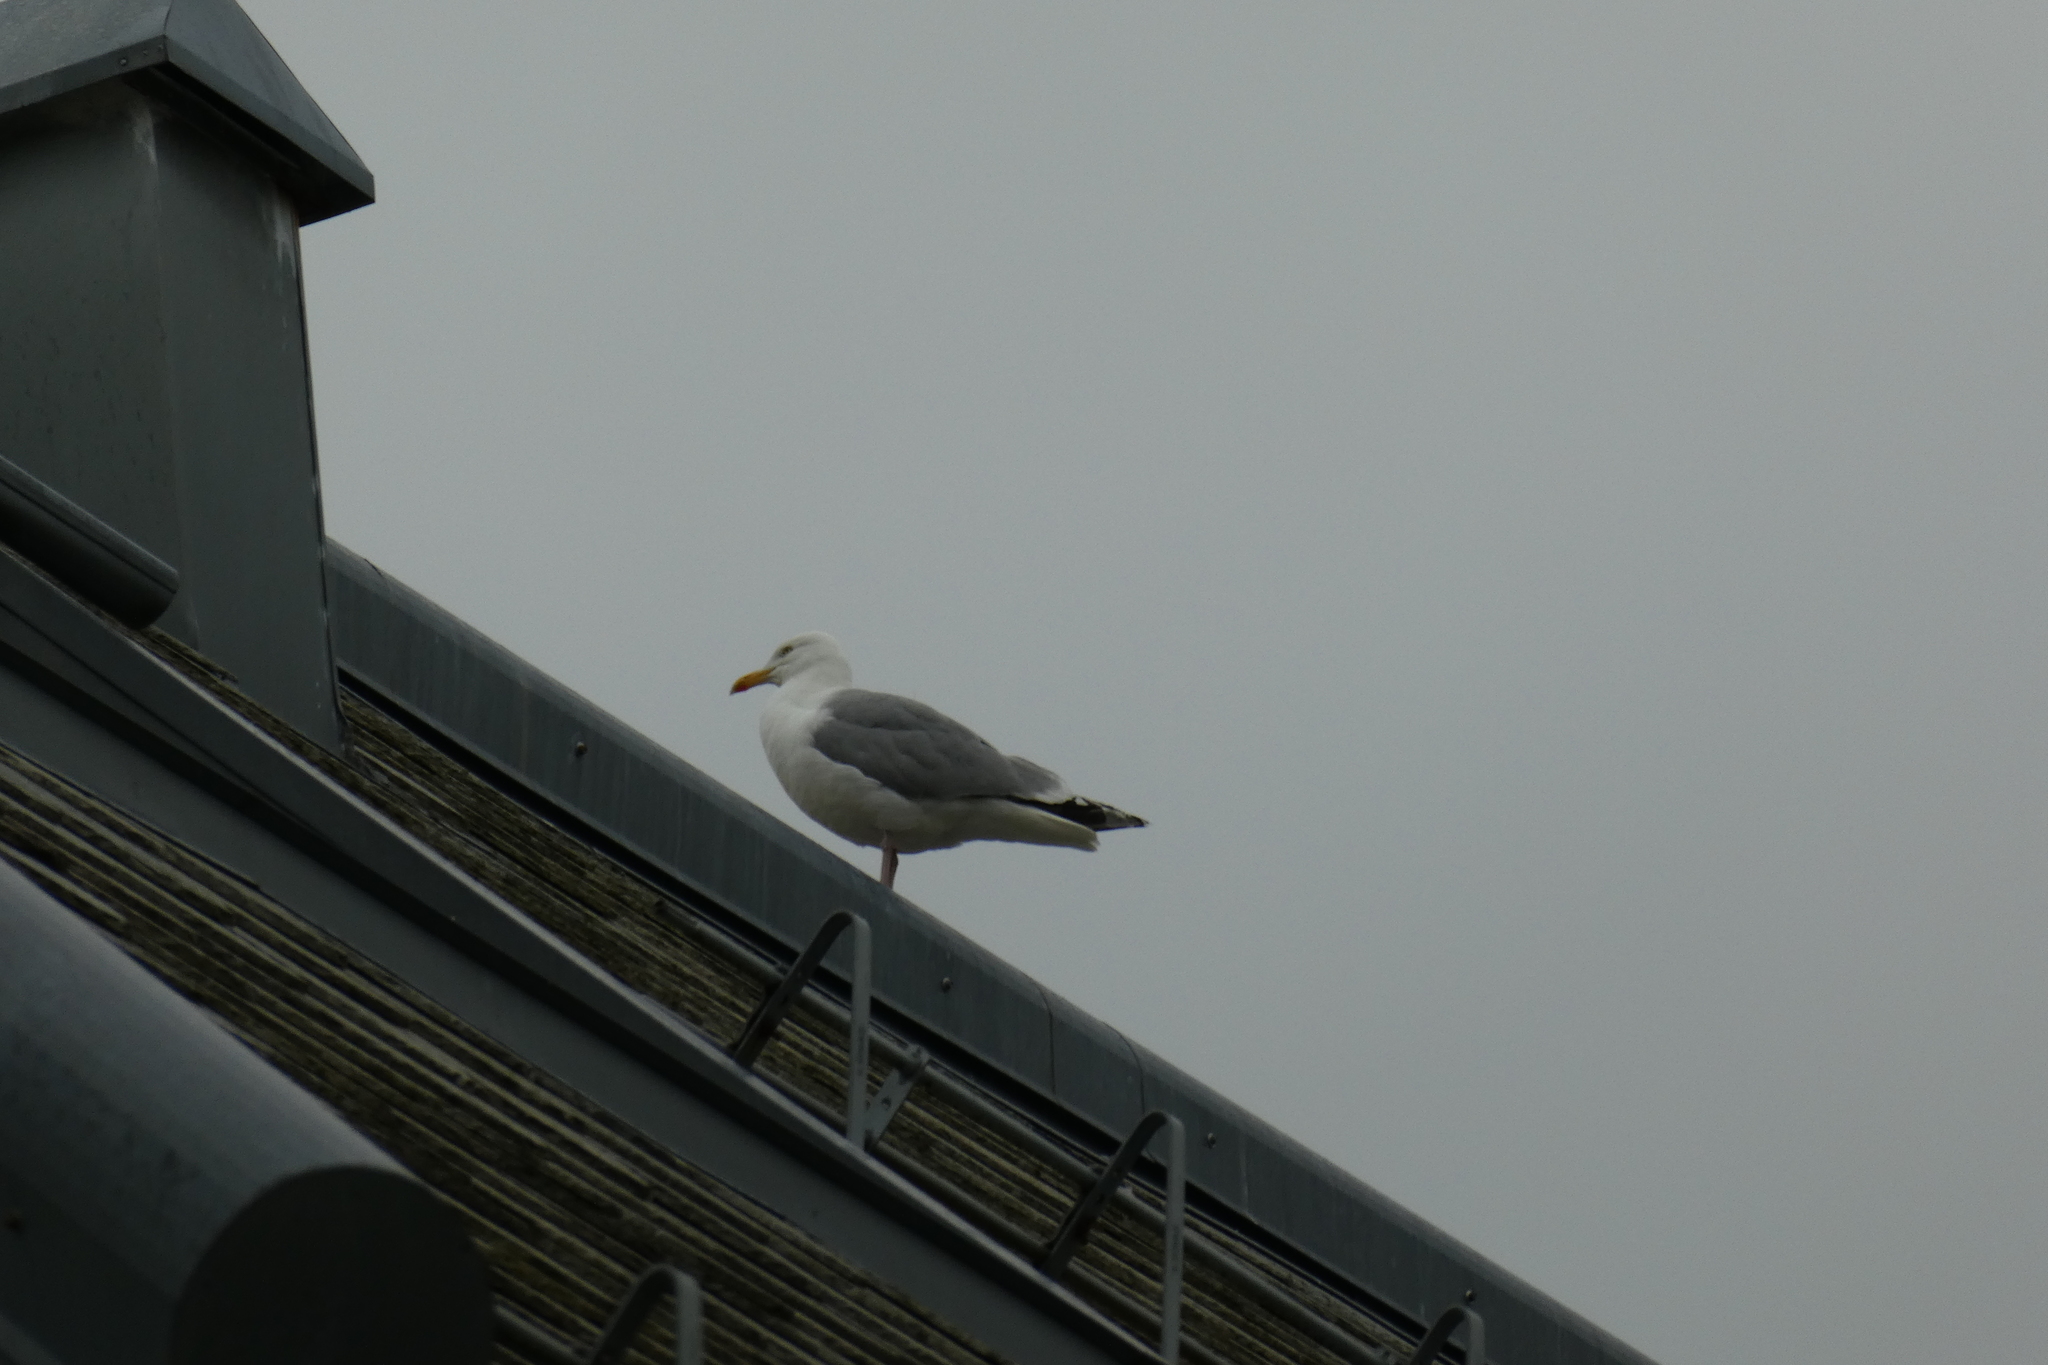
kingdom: Animalia
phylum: Chordata
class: Aves
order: Charadriiformes
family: Laridae
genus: Larus
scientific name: Larus argentatus
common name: Herring gull
